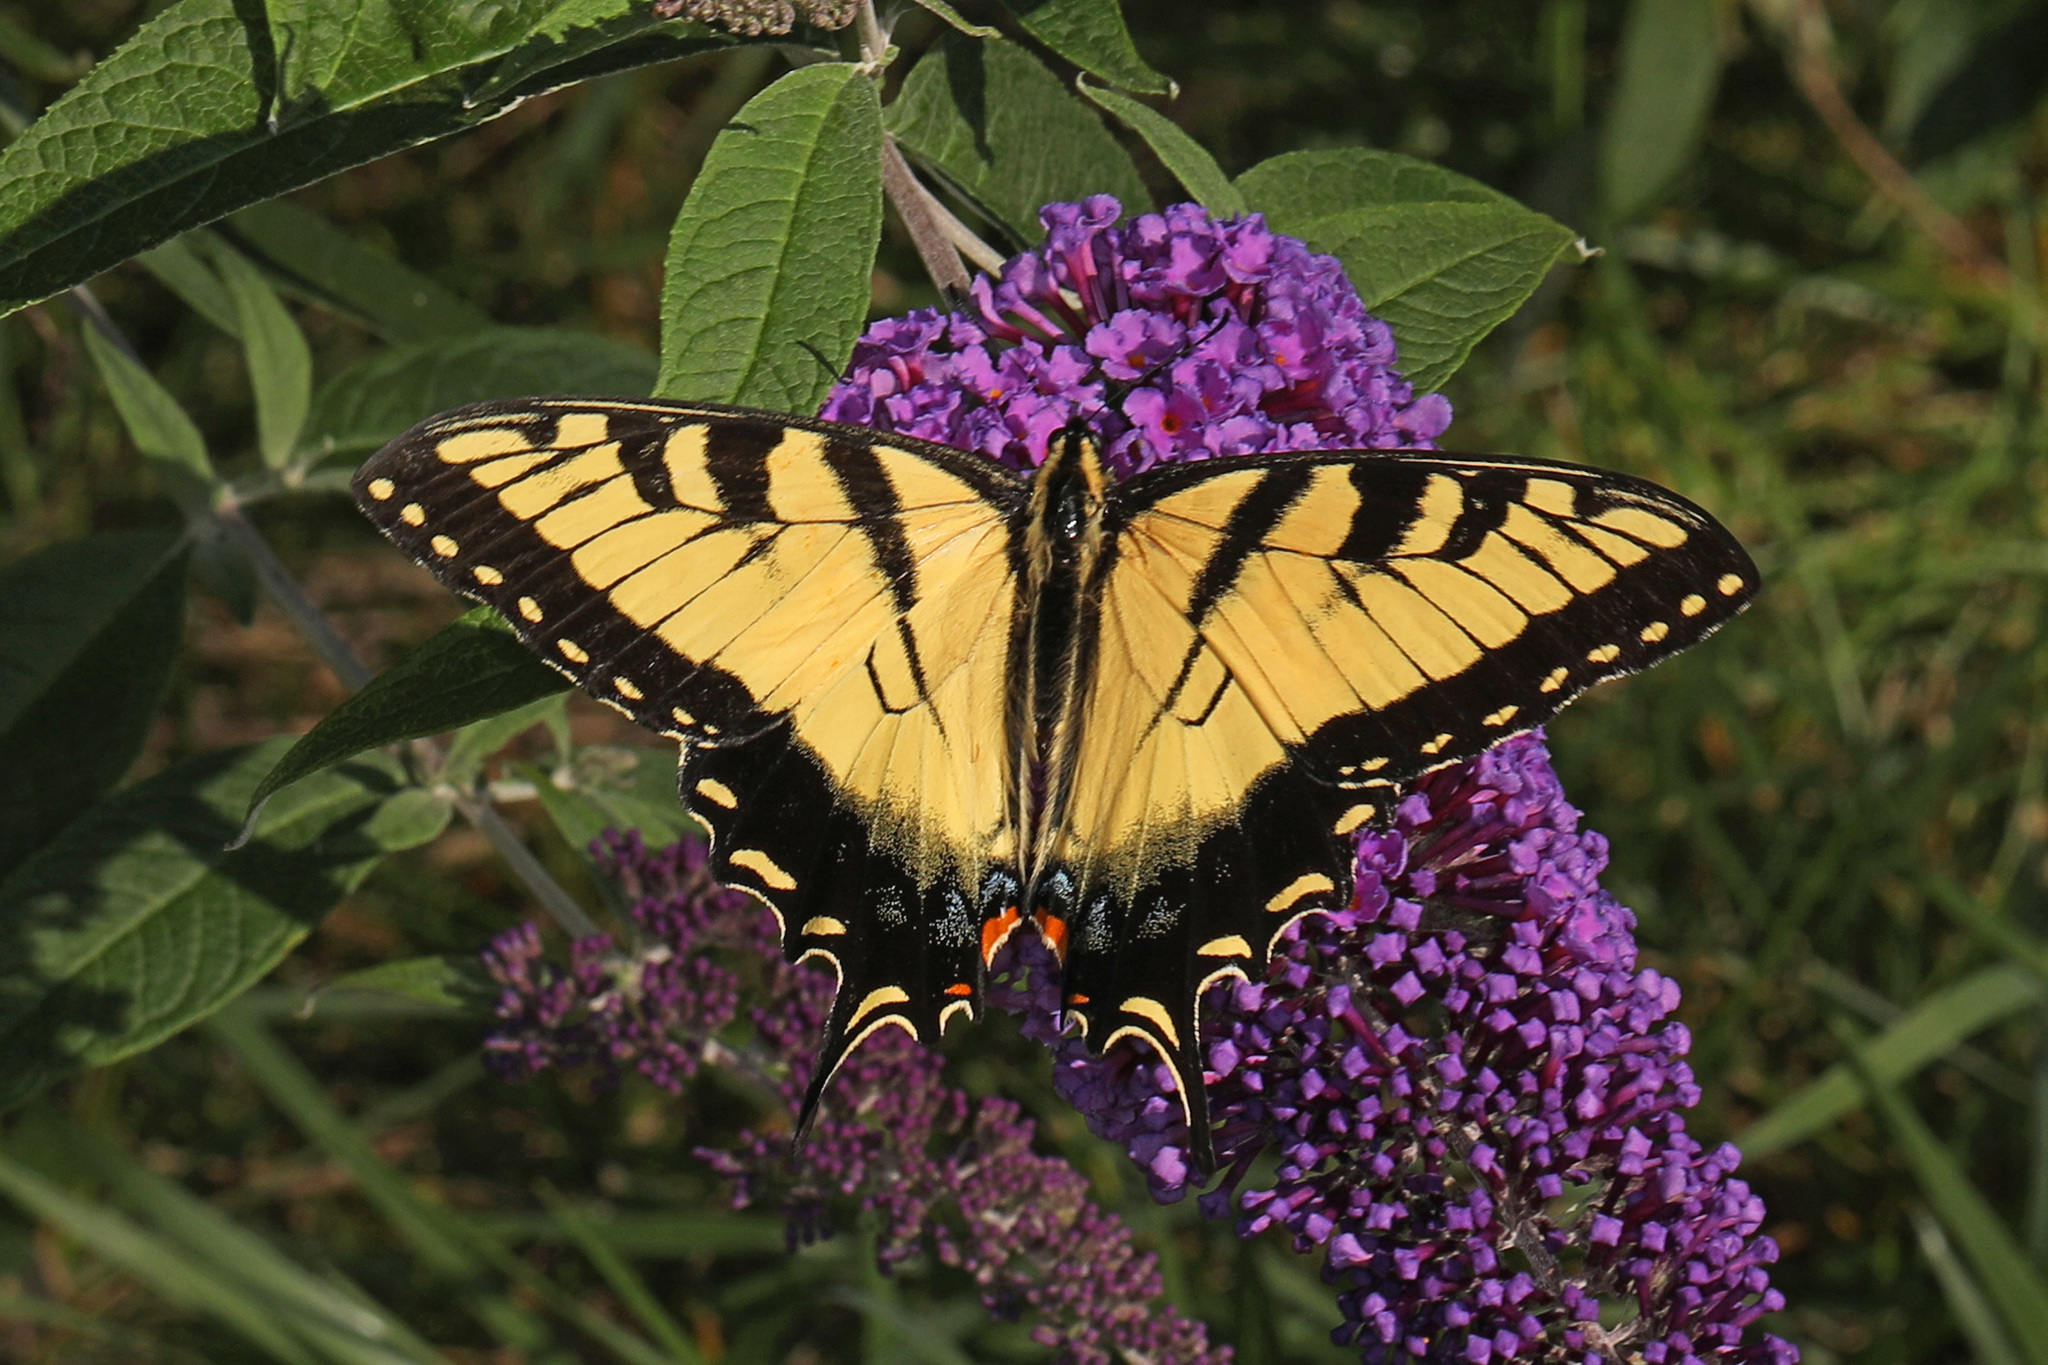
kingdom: Animalia
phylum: Arthropoda
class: Insecta
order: Lepidoptera
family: Papilionidae
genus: Papilio
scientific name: Papilio glaucus
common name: Tiger swallowtail
